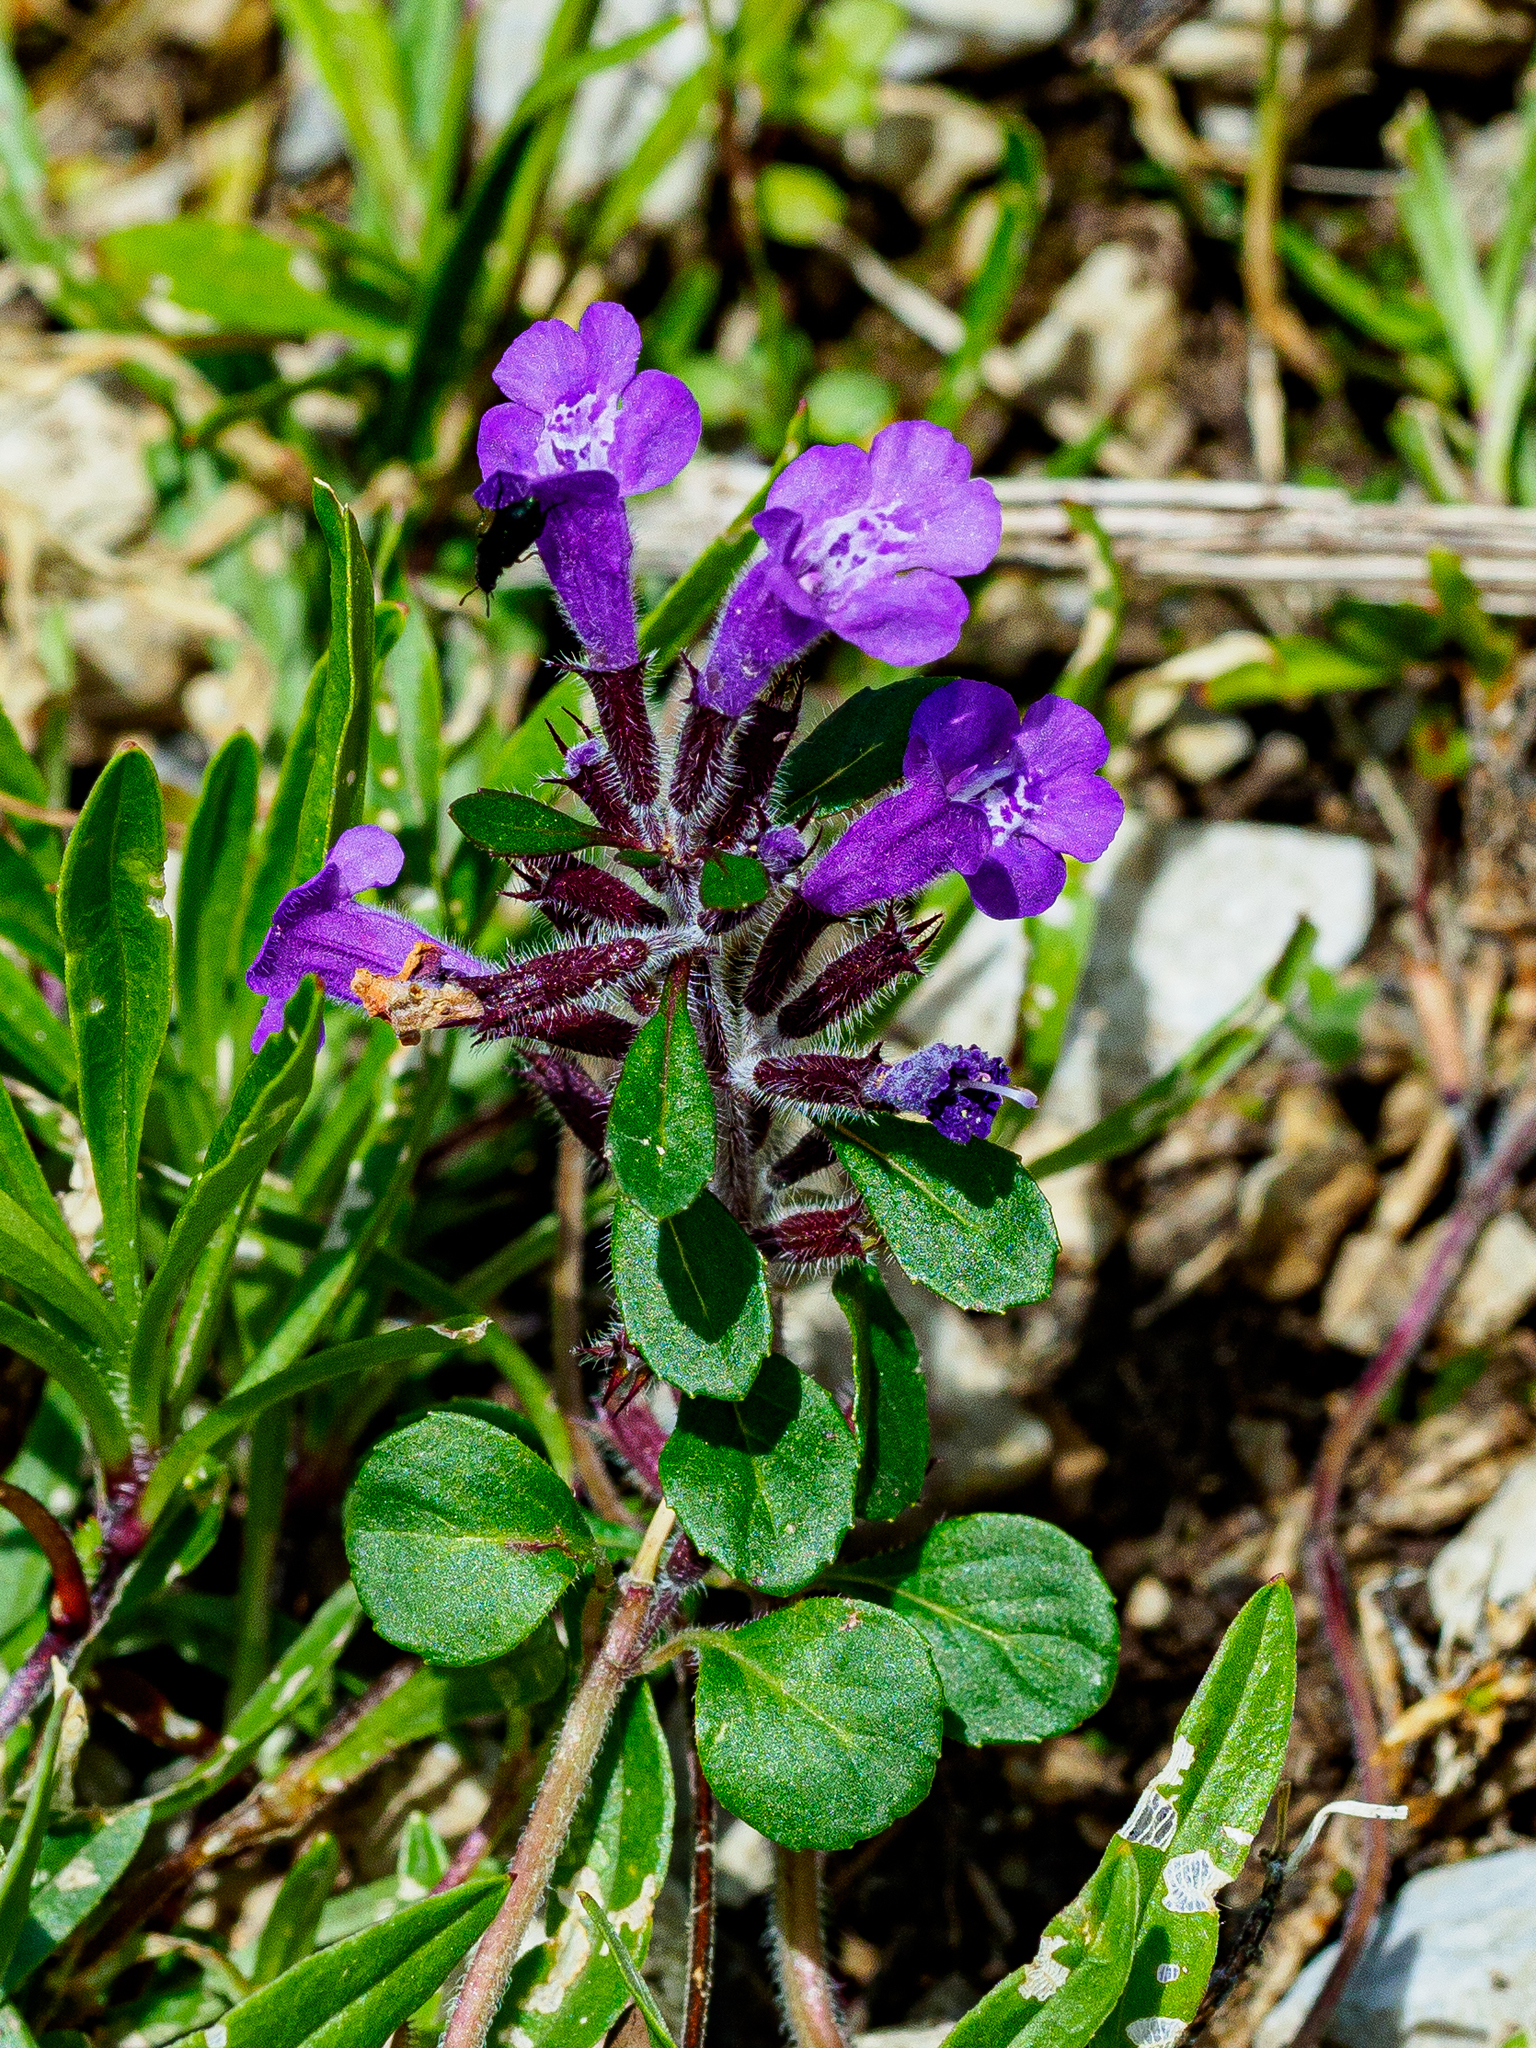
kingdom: Plantae
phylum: Tracheophyta
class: Magnoliopsida
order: Lamiales
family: Lamiaceae
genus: Clinopodium
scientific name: Clinopodium alpinum
